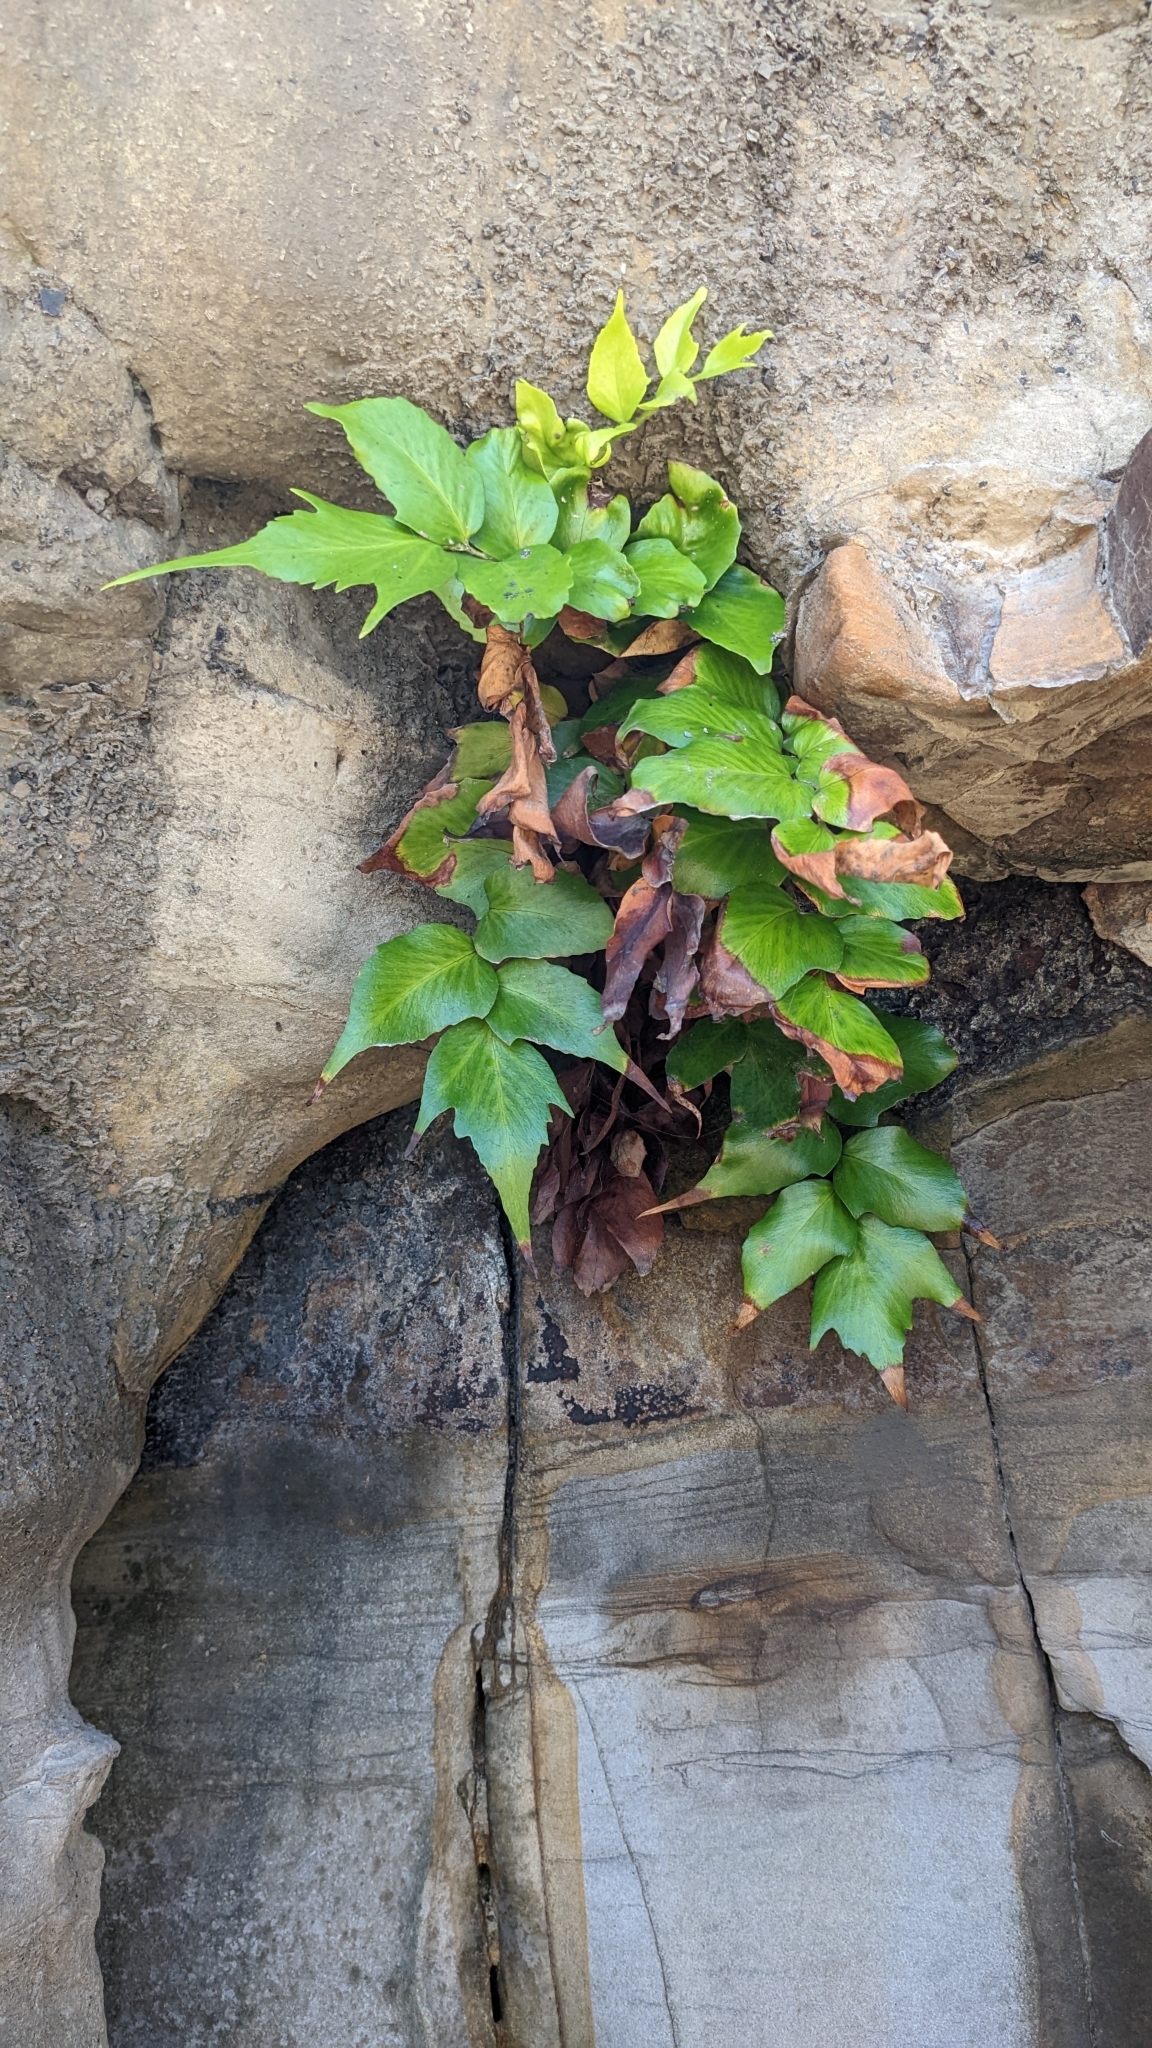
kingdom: Plantae
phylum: Tracheophyta
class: Polypodiopsida
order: Polypodiales
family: Dryopteridaceae
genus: Cyrtomium
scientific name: Cyrtomium falcatum
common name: House holly-fern
